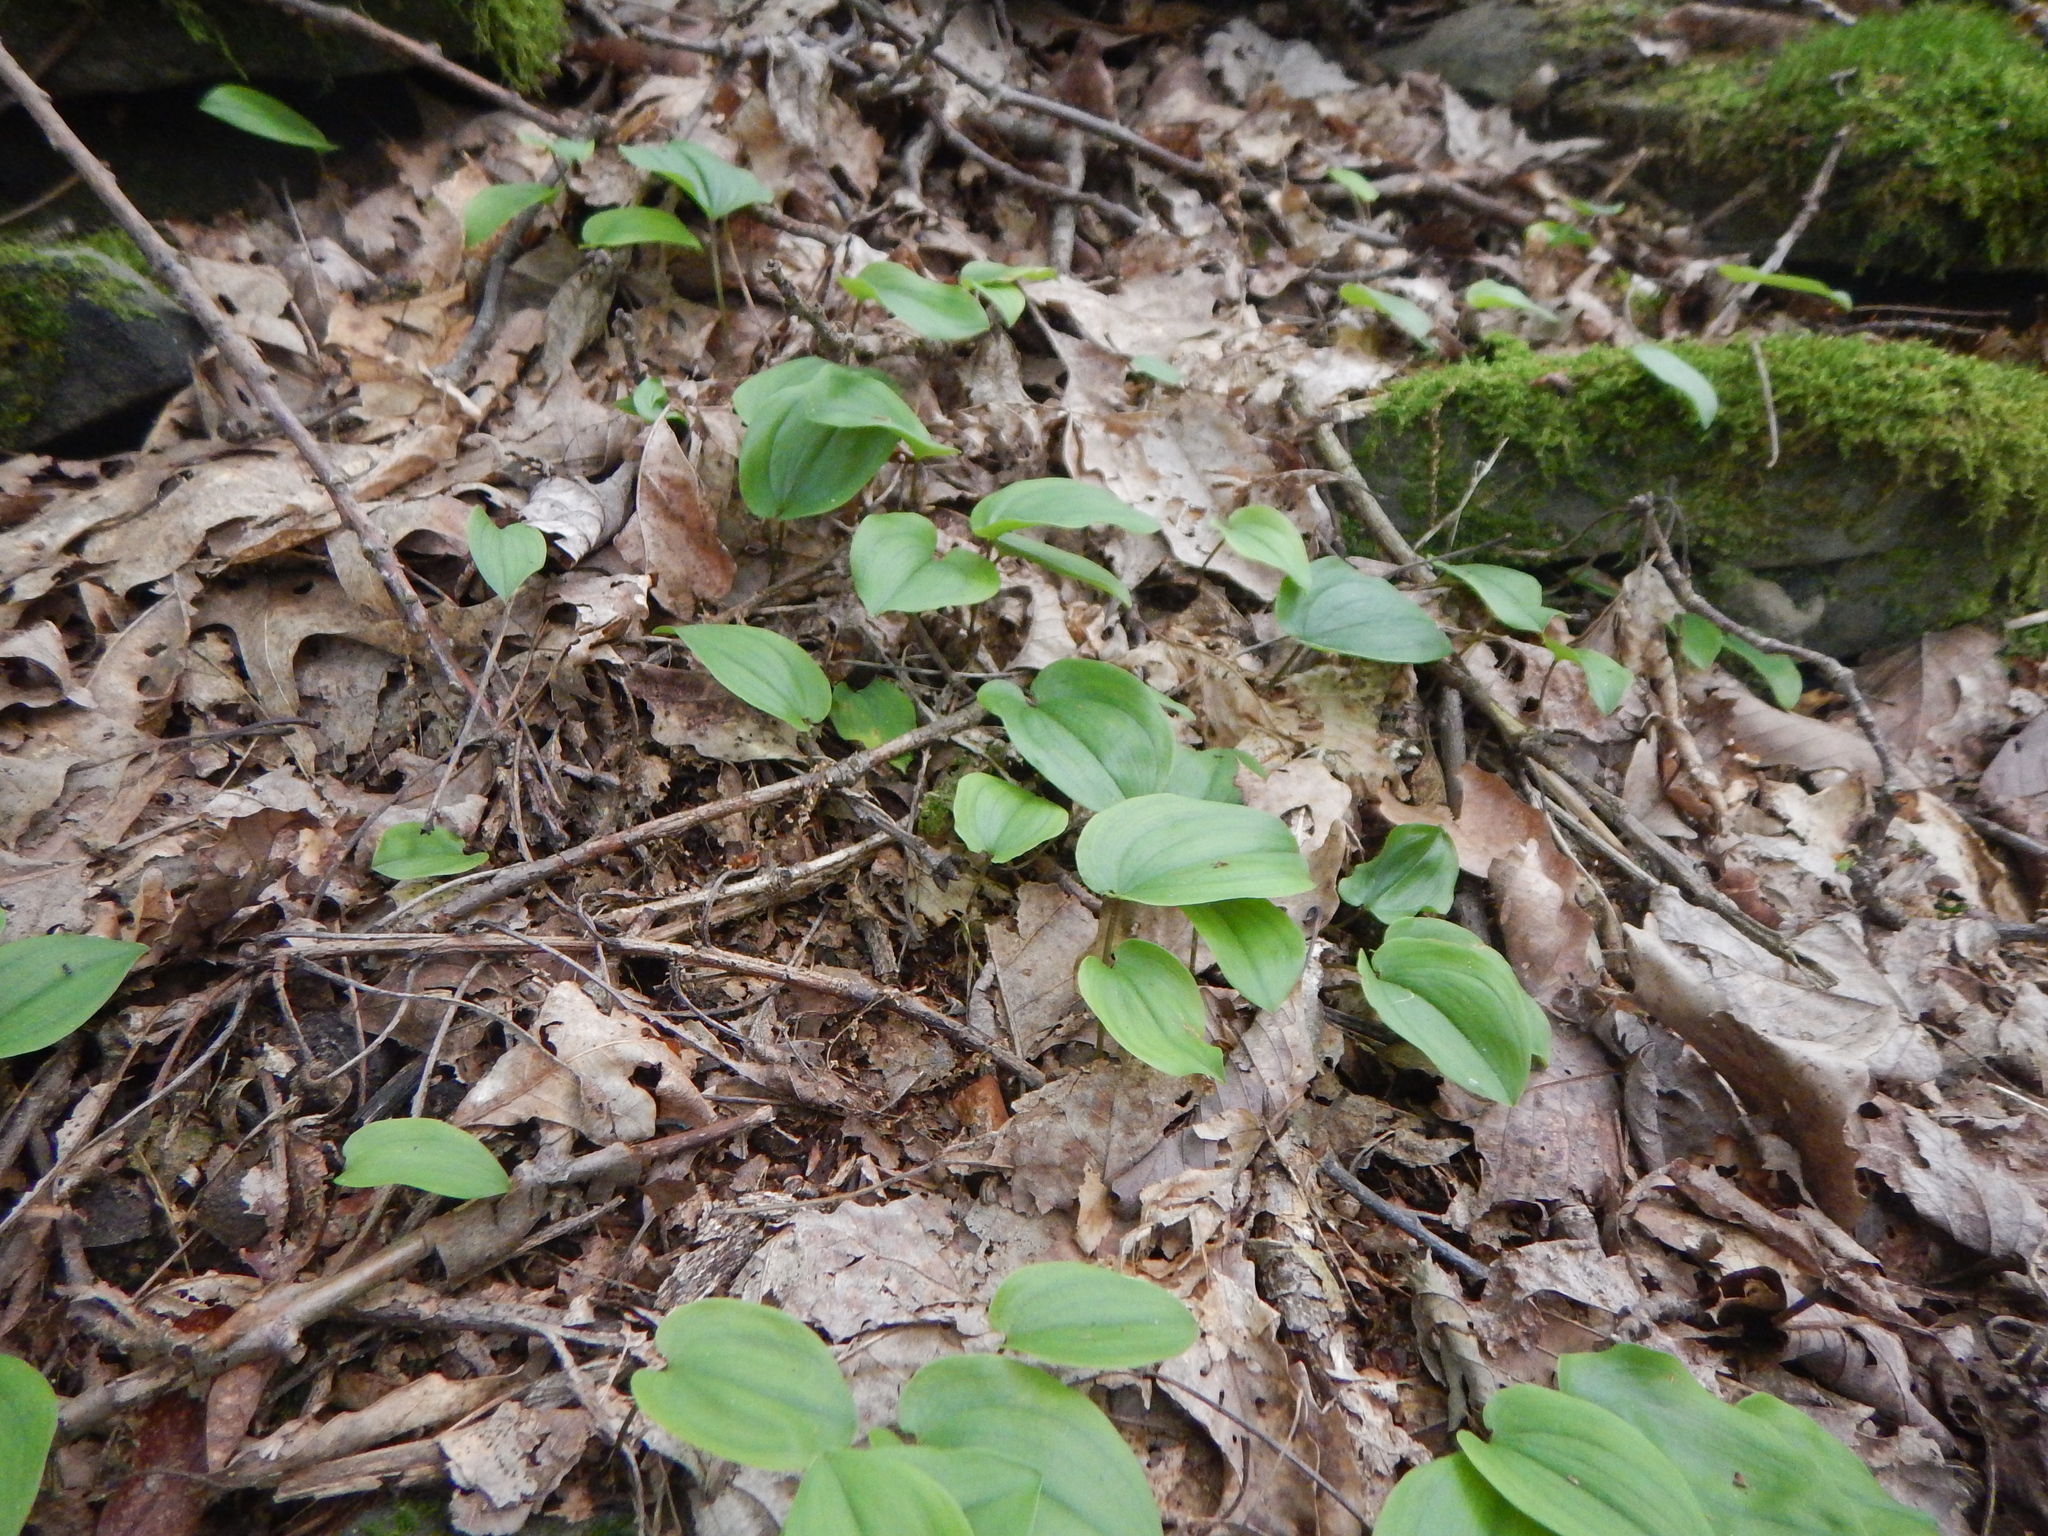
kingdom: Plantae
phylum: Tracheophyta
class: Liliopsida
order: Asparagales
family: Asparagaceae
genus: Maianthemum
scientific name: Maianthemum canadense
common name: False lily-of-the-valley
